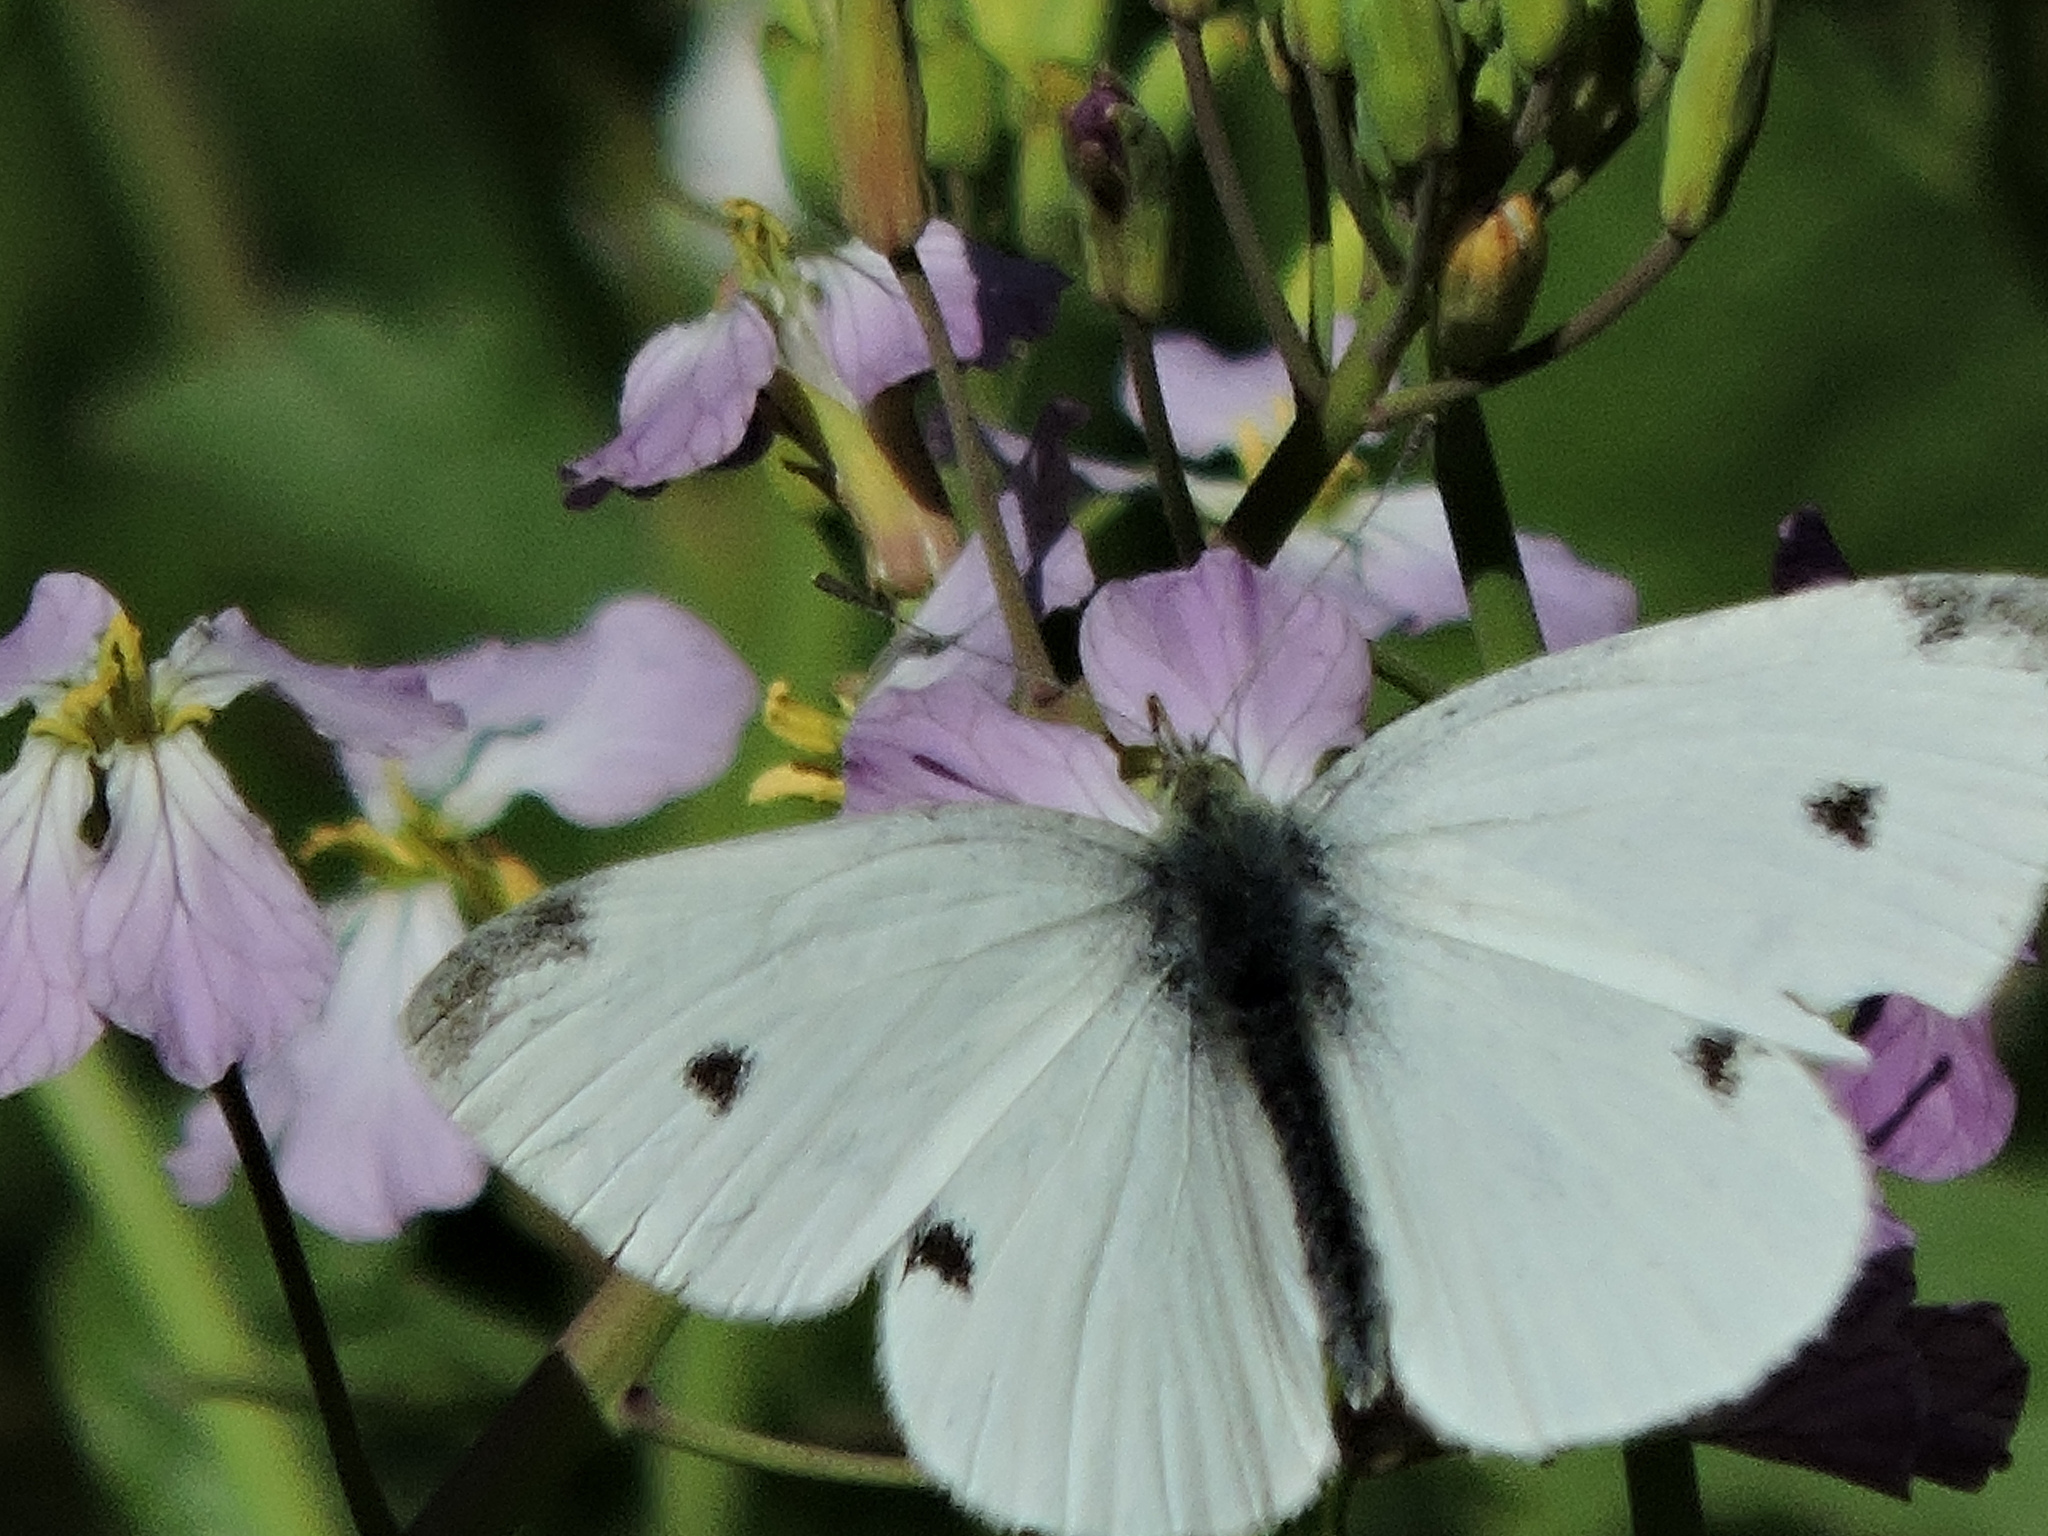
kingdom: Animalia
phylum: Arthropoda
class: Insecta
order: Lepidoptera
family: Pieridae
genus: Pieris
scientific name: Pieris rapae
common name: Small white
